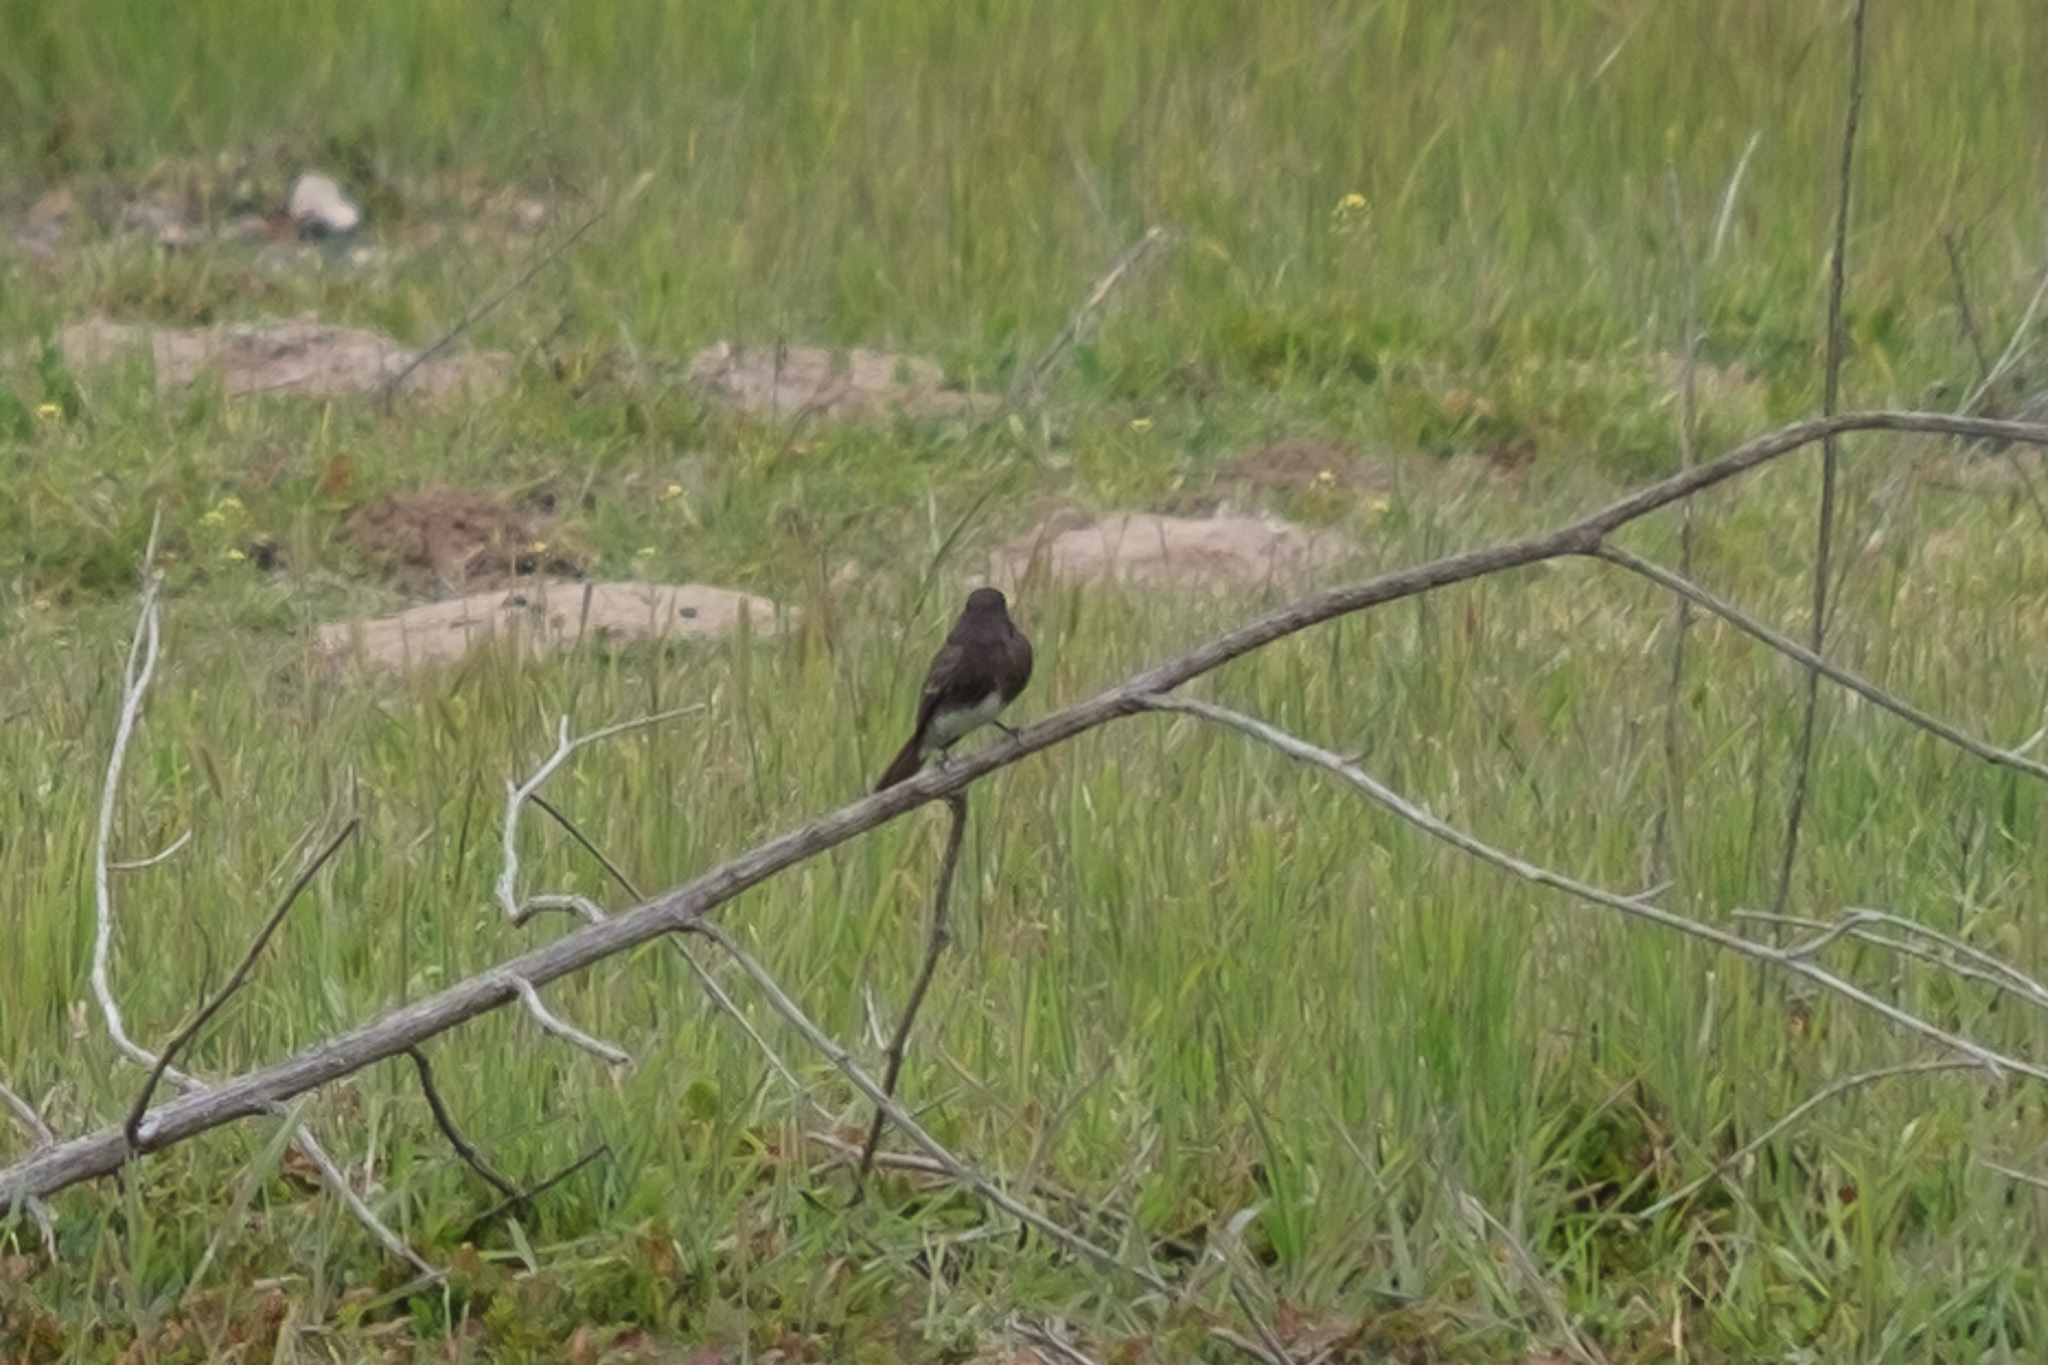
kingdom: Animalia
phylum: Chordata
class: Aves
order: Passeriformes
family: Tyrannidae
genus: Sayornis
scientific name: Sayornis nigricans
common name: Black phoebe
